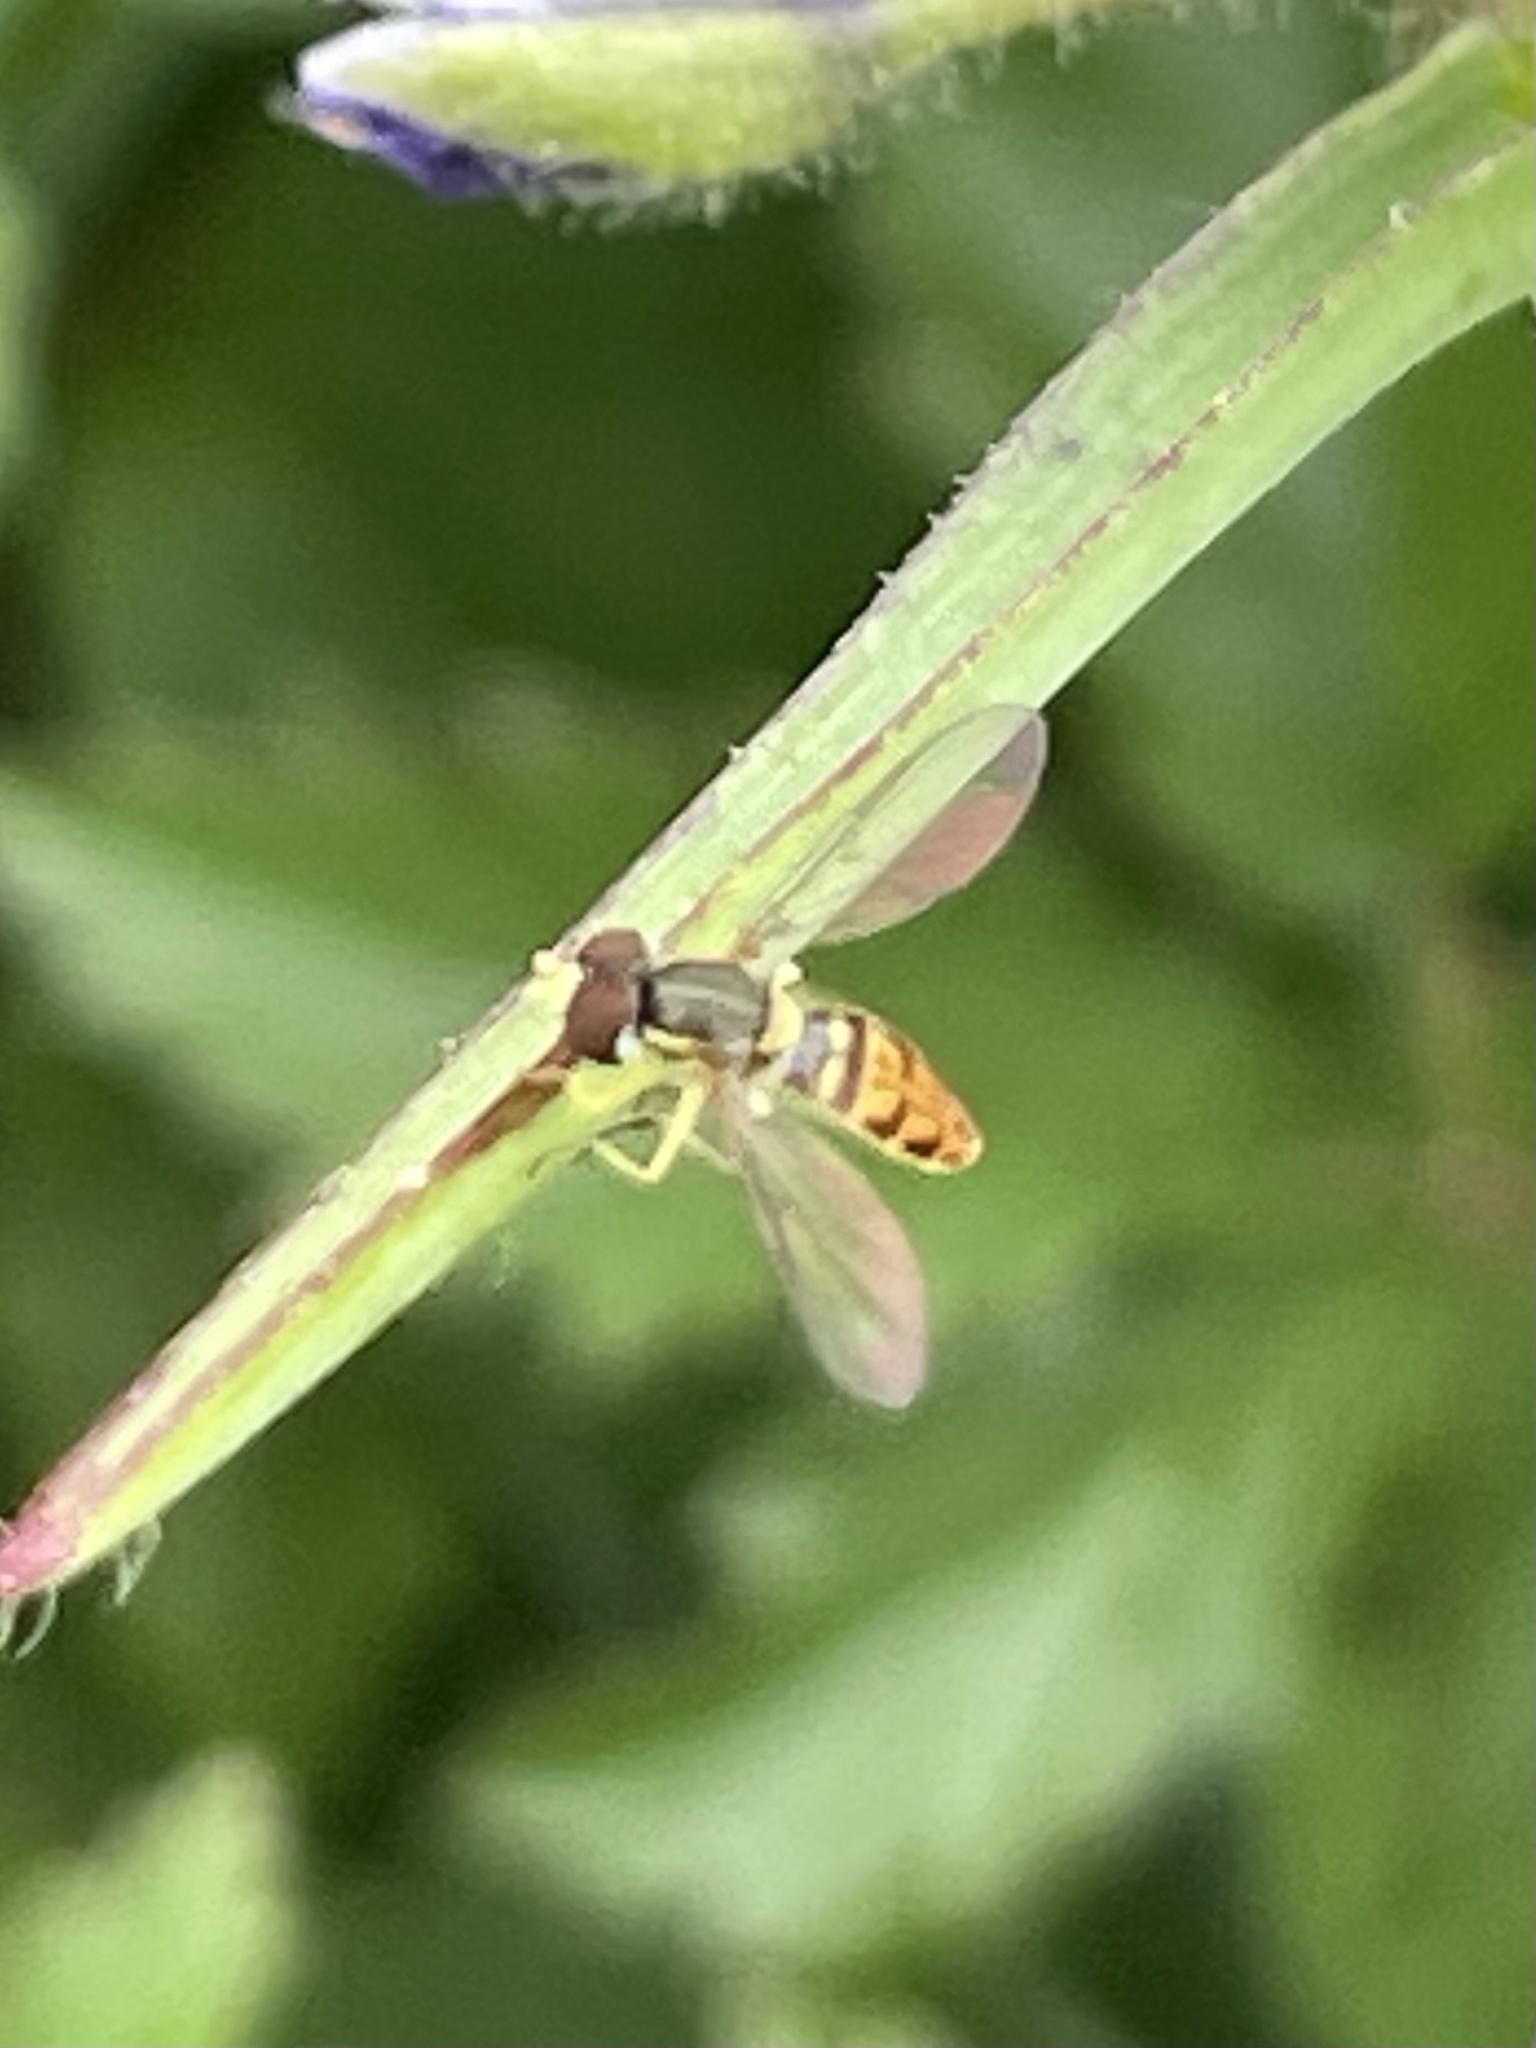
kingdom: Animalia
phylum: Arthropoda
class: Insecta
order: Diptera
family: Syrphidae
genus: Toxomerus
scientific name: Toxomerus marginatus
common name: Syrphid fly
